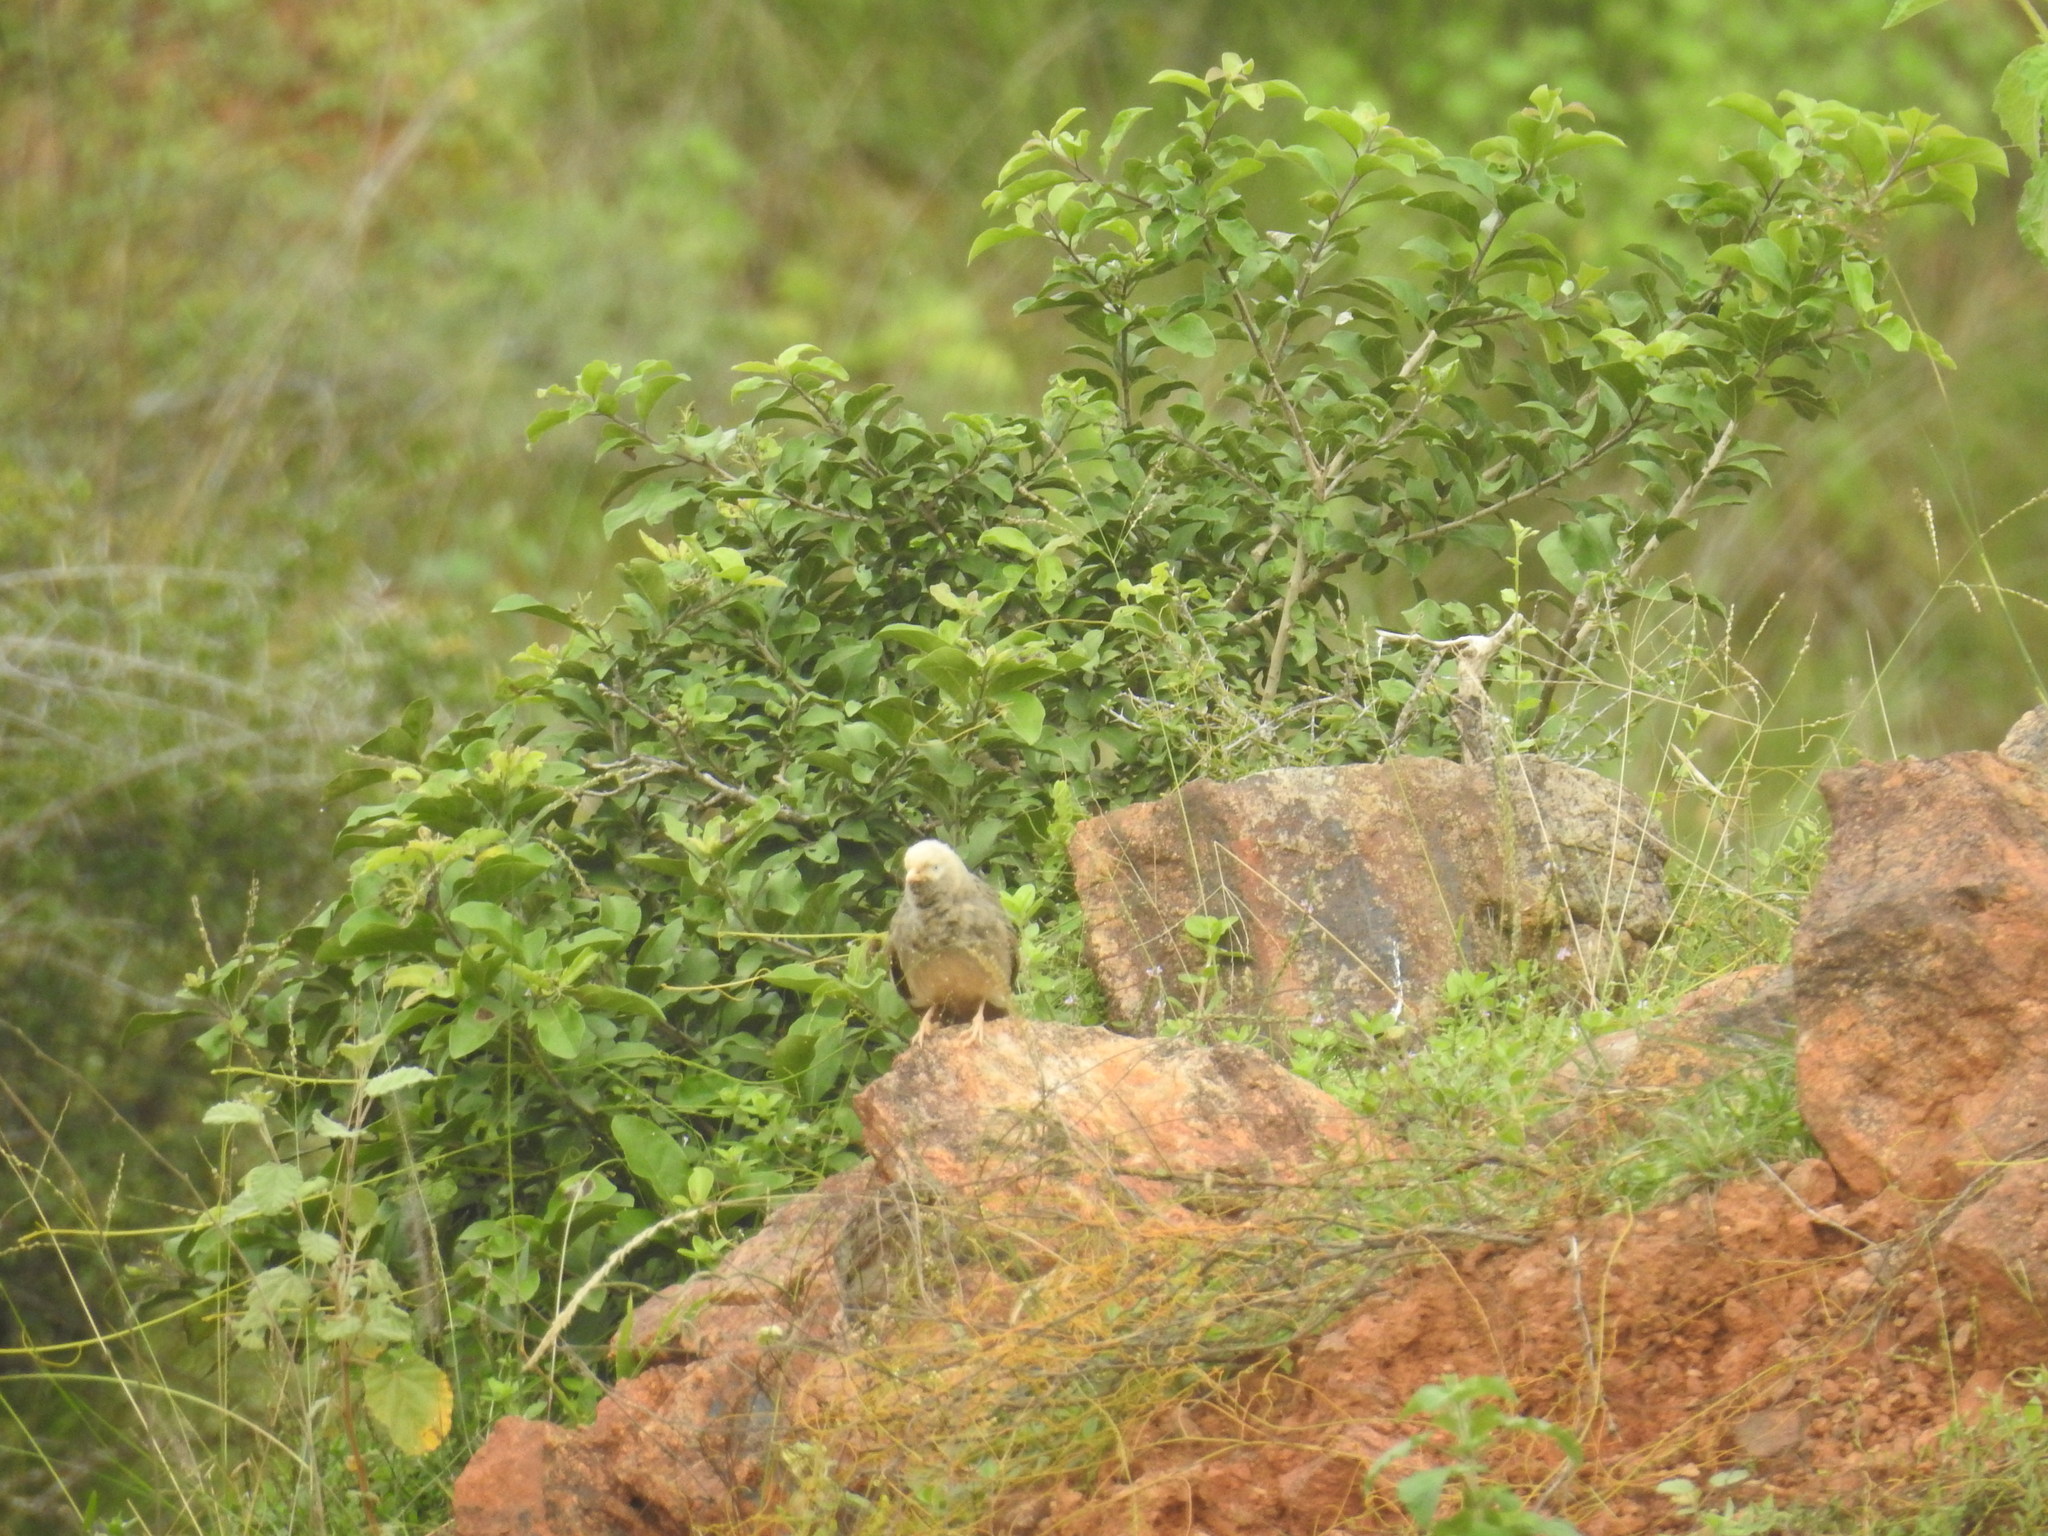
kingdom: Animalia
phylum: Chordata
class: Aves
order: Passeriformes
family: Leiothrichidae
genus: Turdoides
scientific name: Turdoides affinis
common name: Yellow-billed babbler
